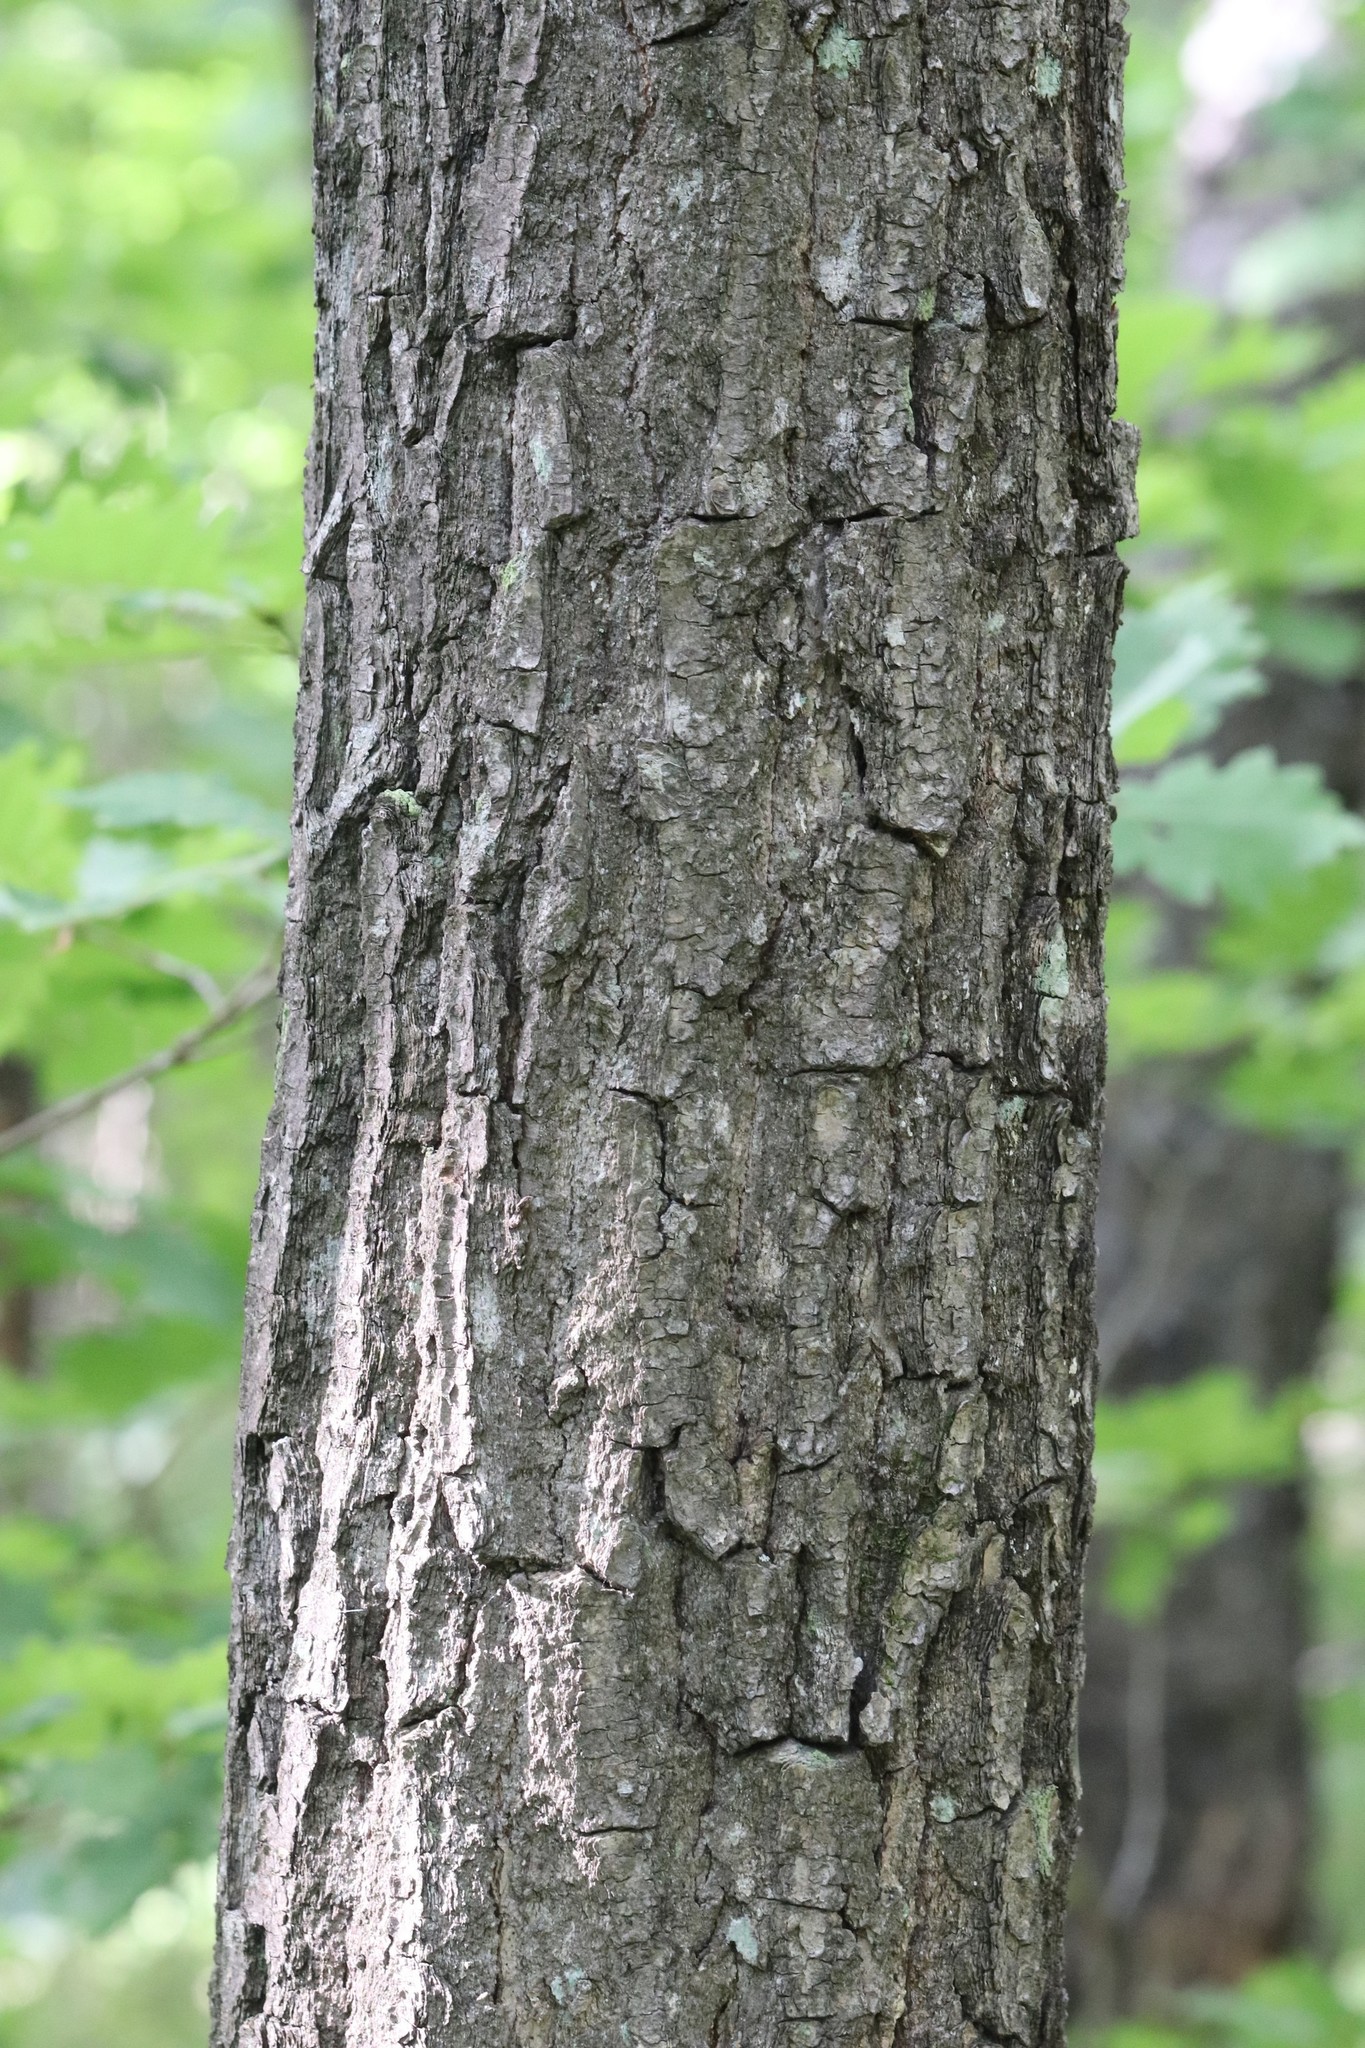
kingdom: Plantae
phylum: Tracheophyta
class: Magnoliopsida
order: Fagales
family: Fagaceae
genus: Quercus
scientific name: Quercus mongolica
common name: Mongolian oak
